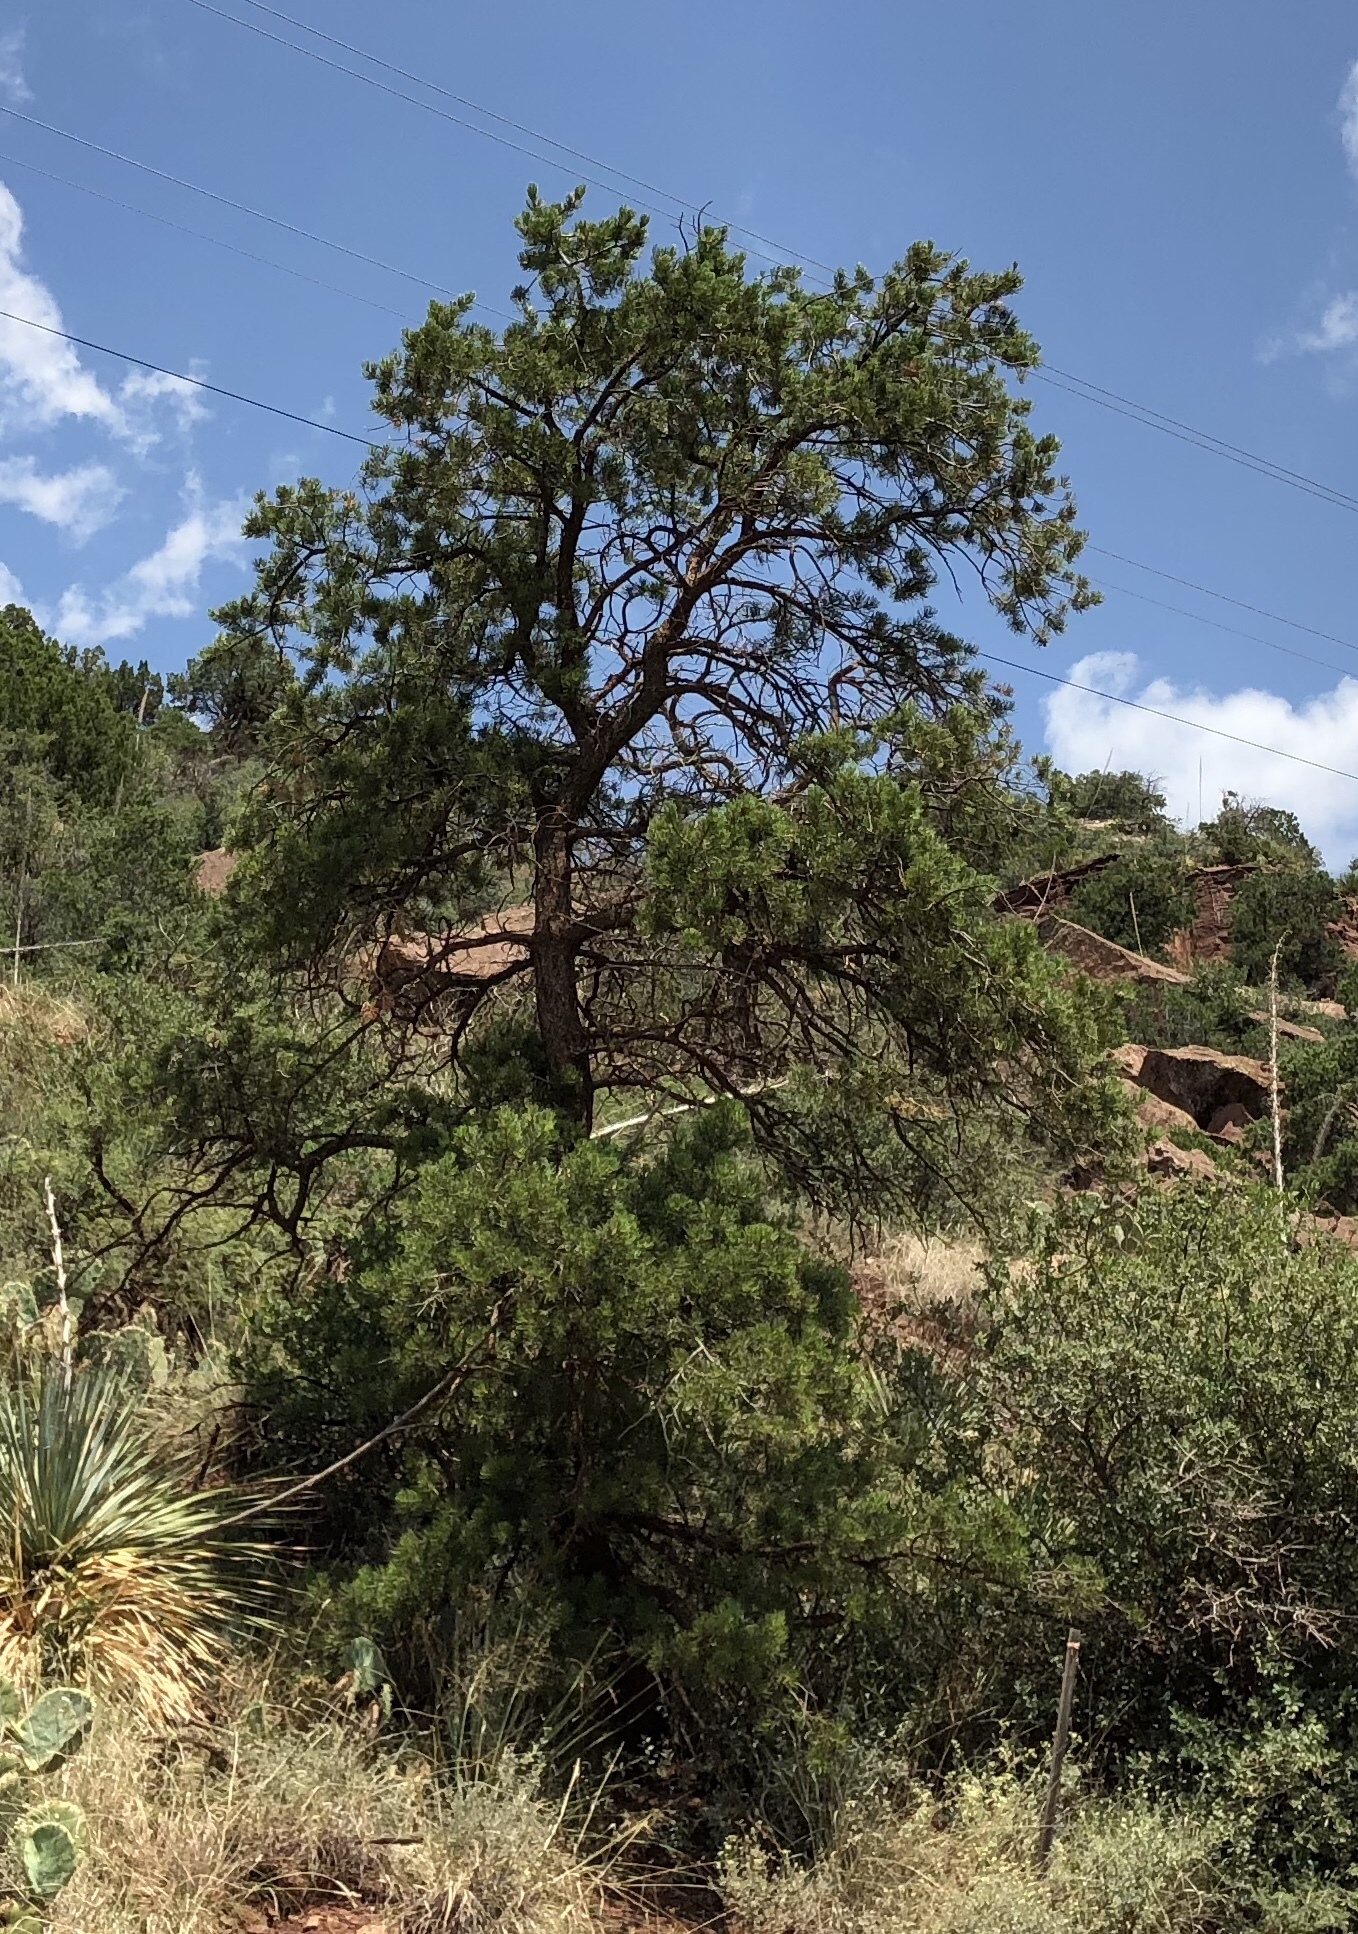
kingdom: Plantae
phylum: Tracheophyta
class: Pinopsida
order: Pinales
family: Pinaceae
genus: Pinus
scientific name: Pinus edulis
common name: Colorado pinyon
